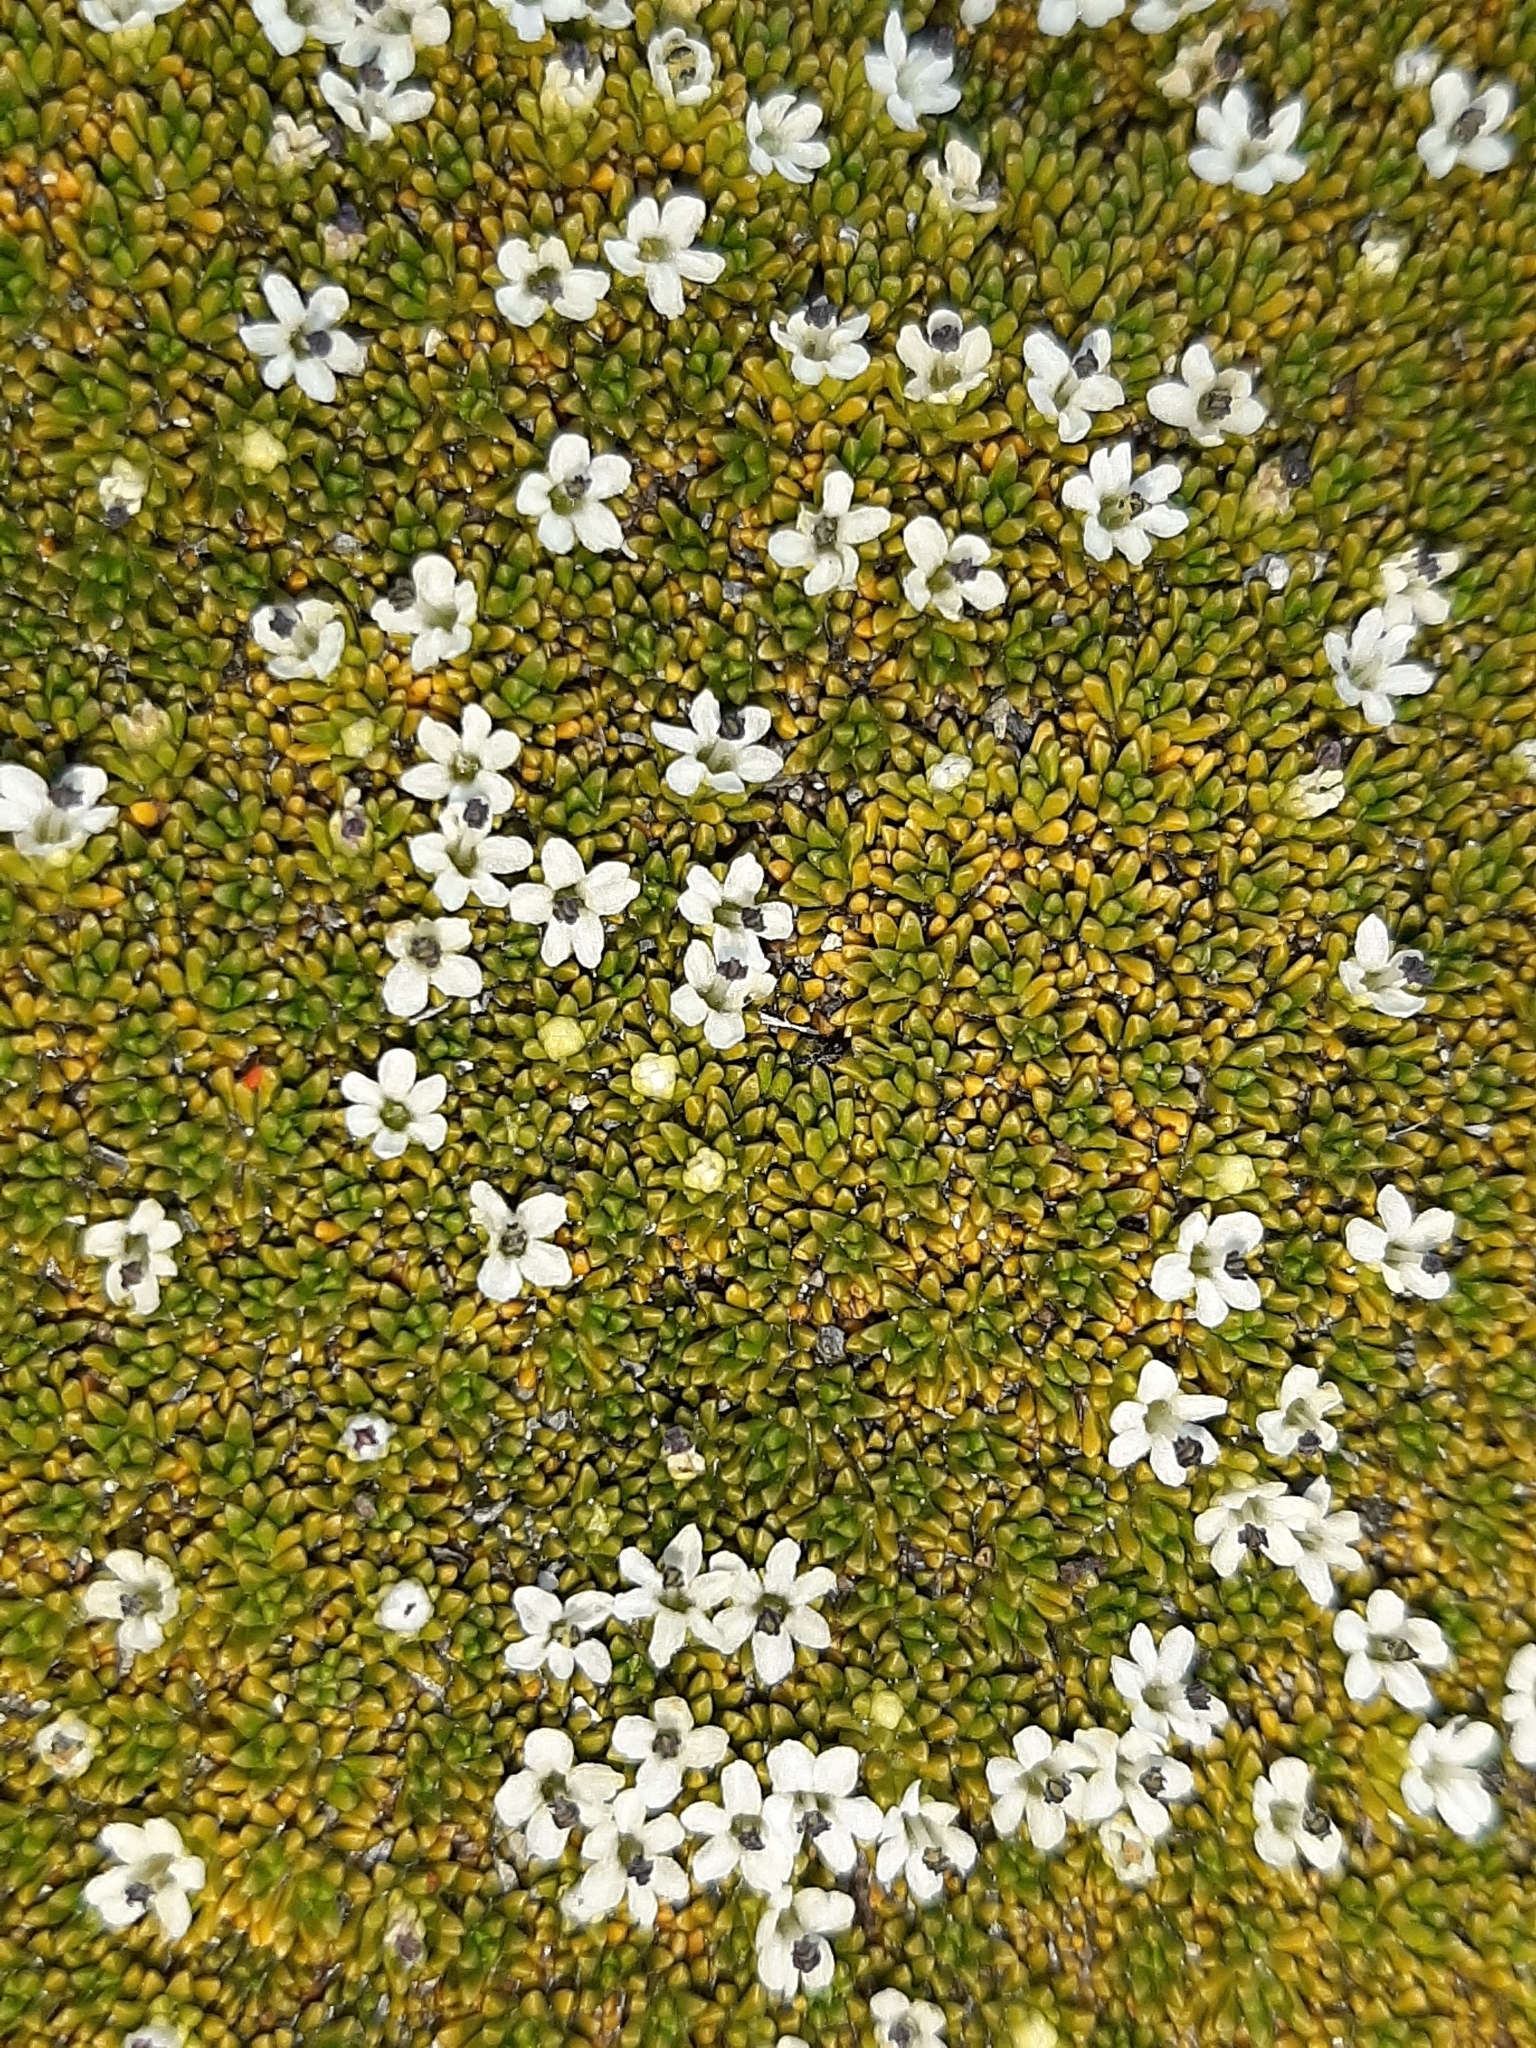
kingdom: Plantae
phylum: Tracheophyta
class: Magnoliopsida
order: Asterales
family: Stylidiaceae
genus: Phyllachne
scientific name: Phyllachne colensoi
